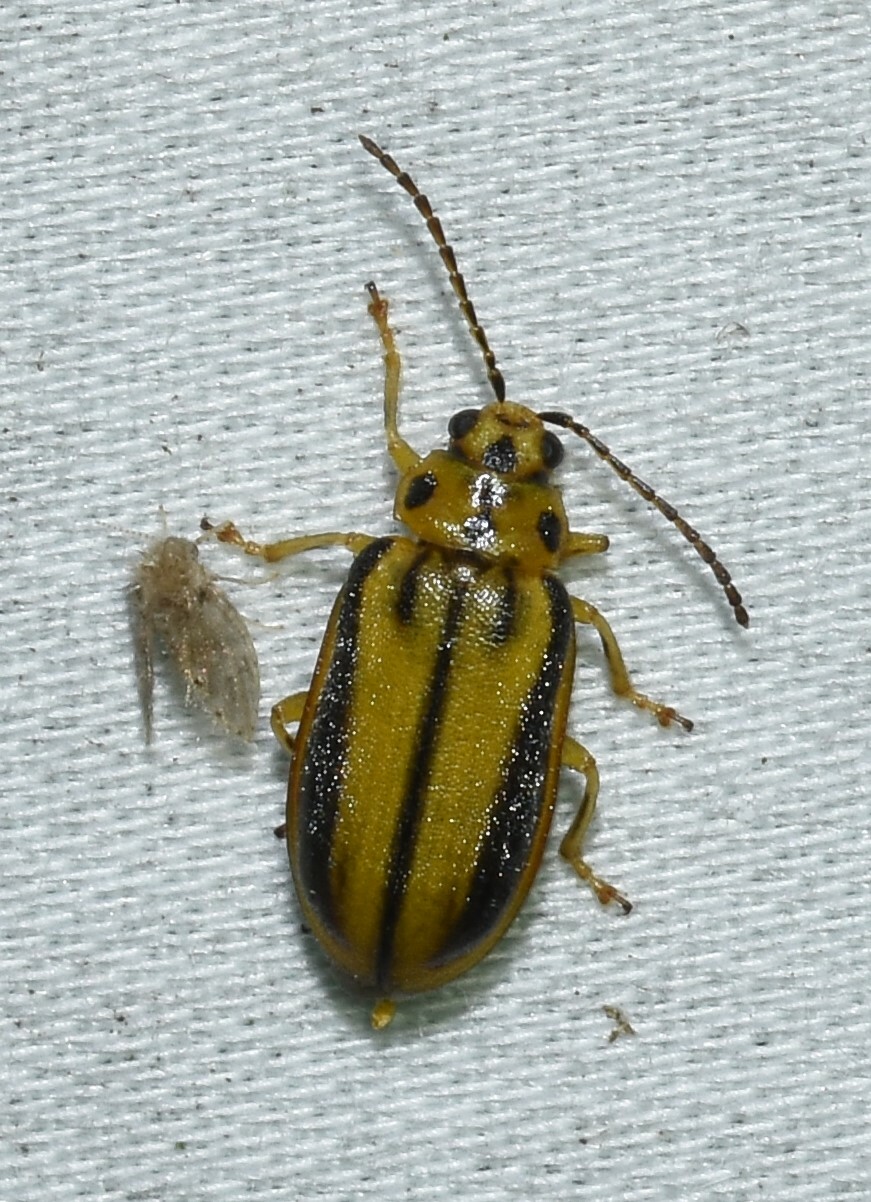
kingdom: Animalia
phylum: Arthropoda
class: Insecta
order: Coleoptera
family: Chrysomelidae
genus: Xanthogaleruca
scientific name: Xanthogaleruca luteola
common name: Elm leaf beetle
